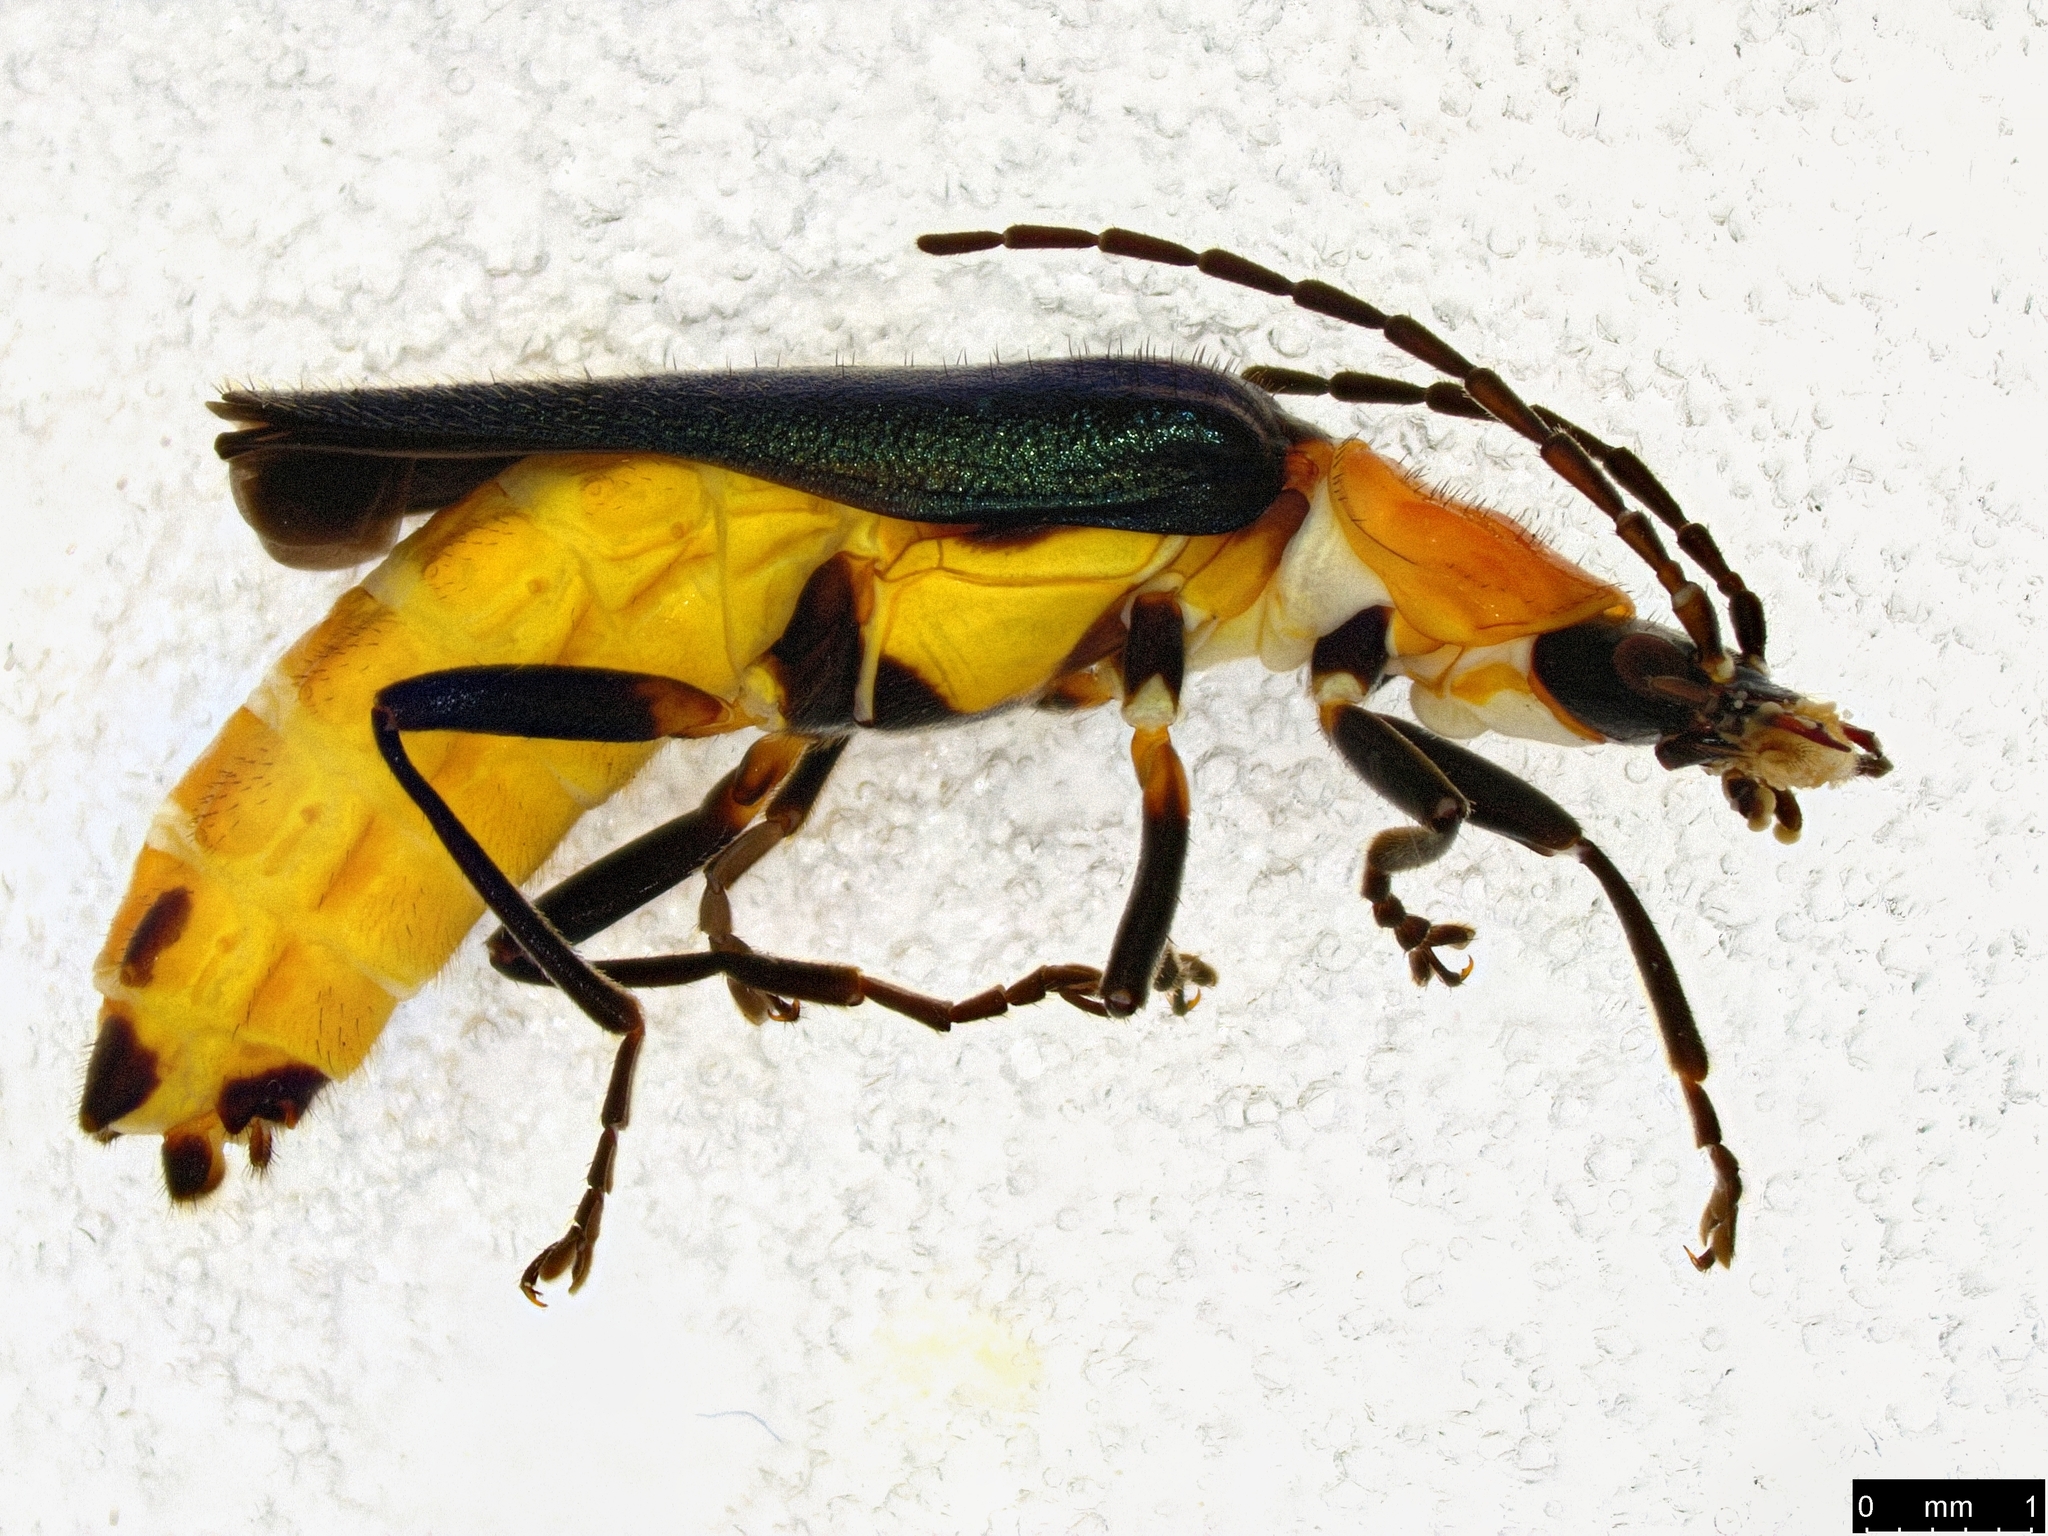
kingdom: Animalia
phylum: Arthropoda
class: Insecta
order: Coleoptera
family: Cantharidae
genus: Chauliognathus
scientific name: Chauliognathus
